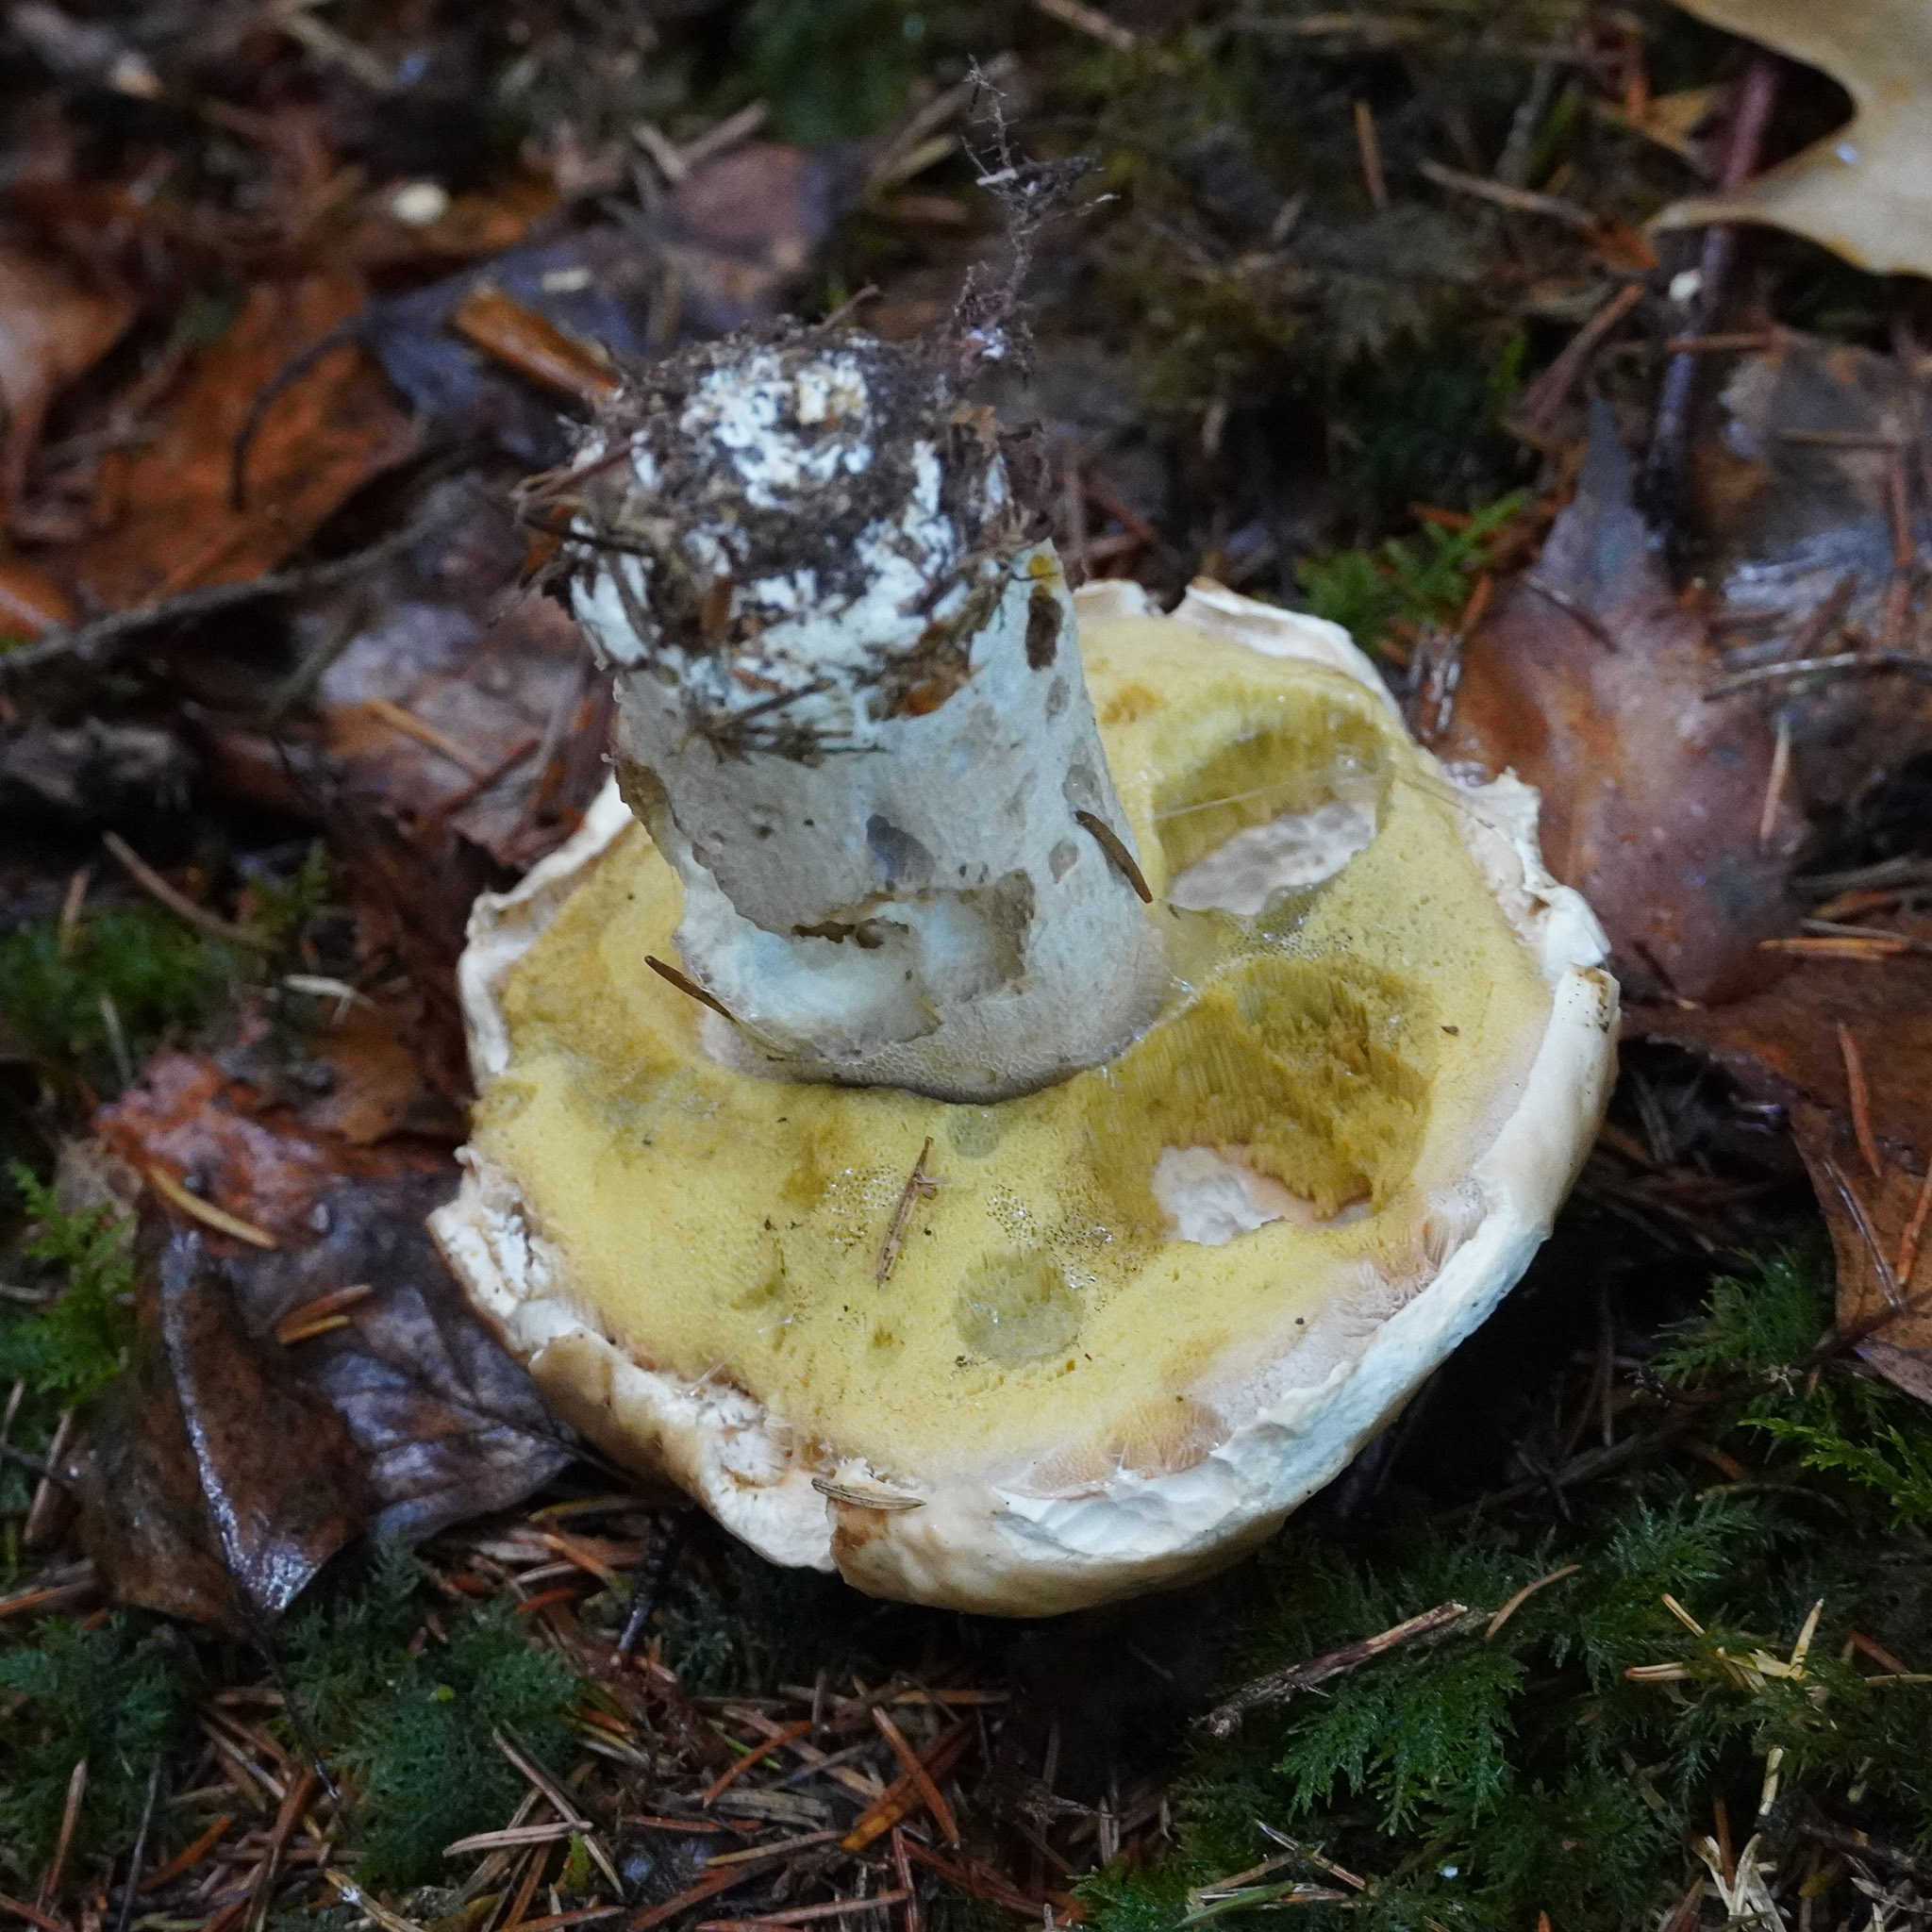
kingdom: Fungi
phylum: Basidiomycota
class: Agaricomycetes
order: Boletales
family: Boletaceae
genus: Boletus
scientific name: Boletus edulis
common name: Cep
